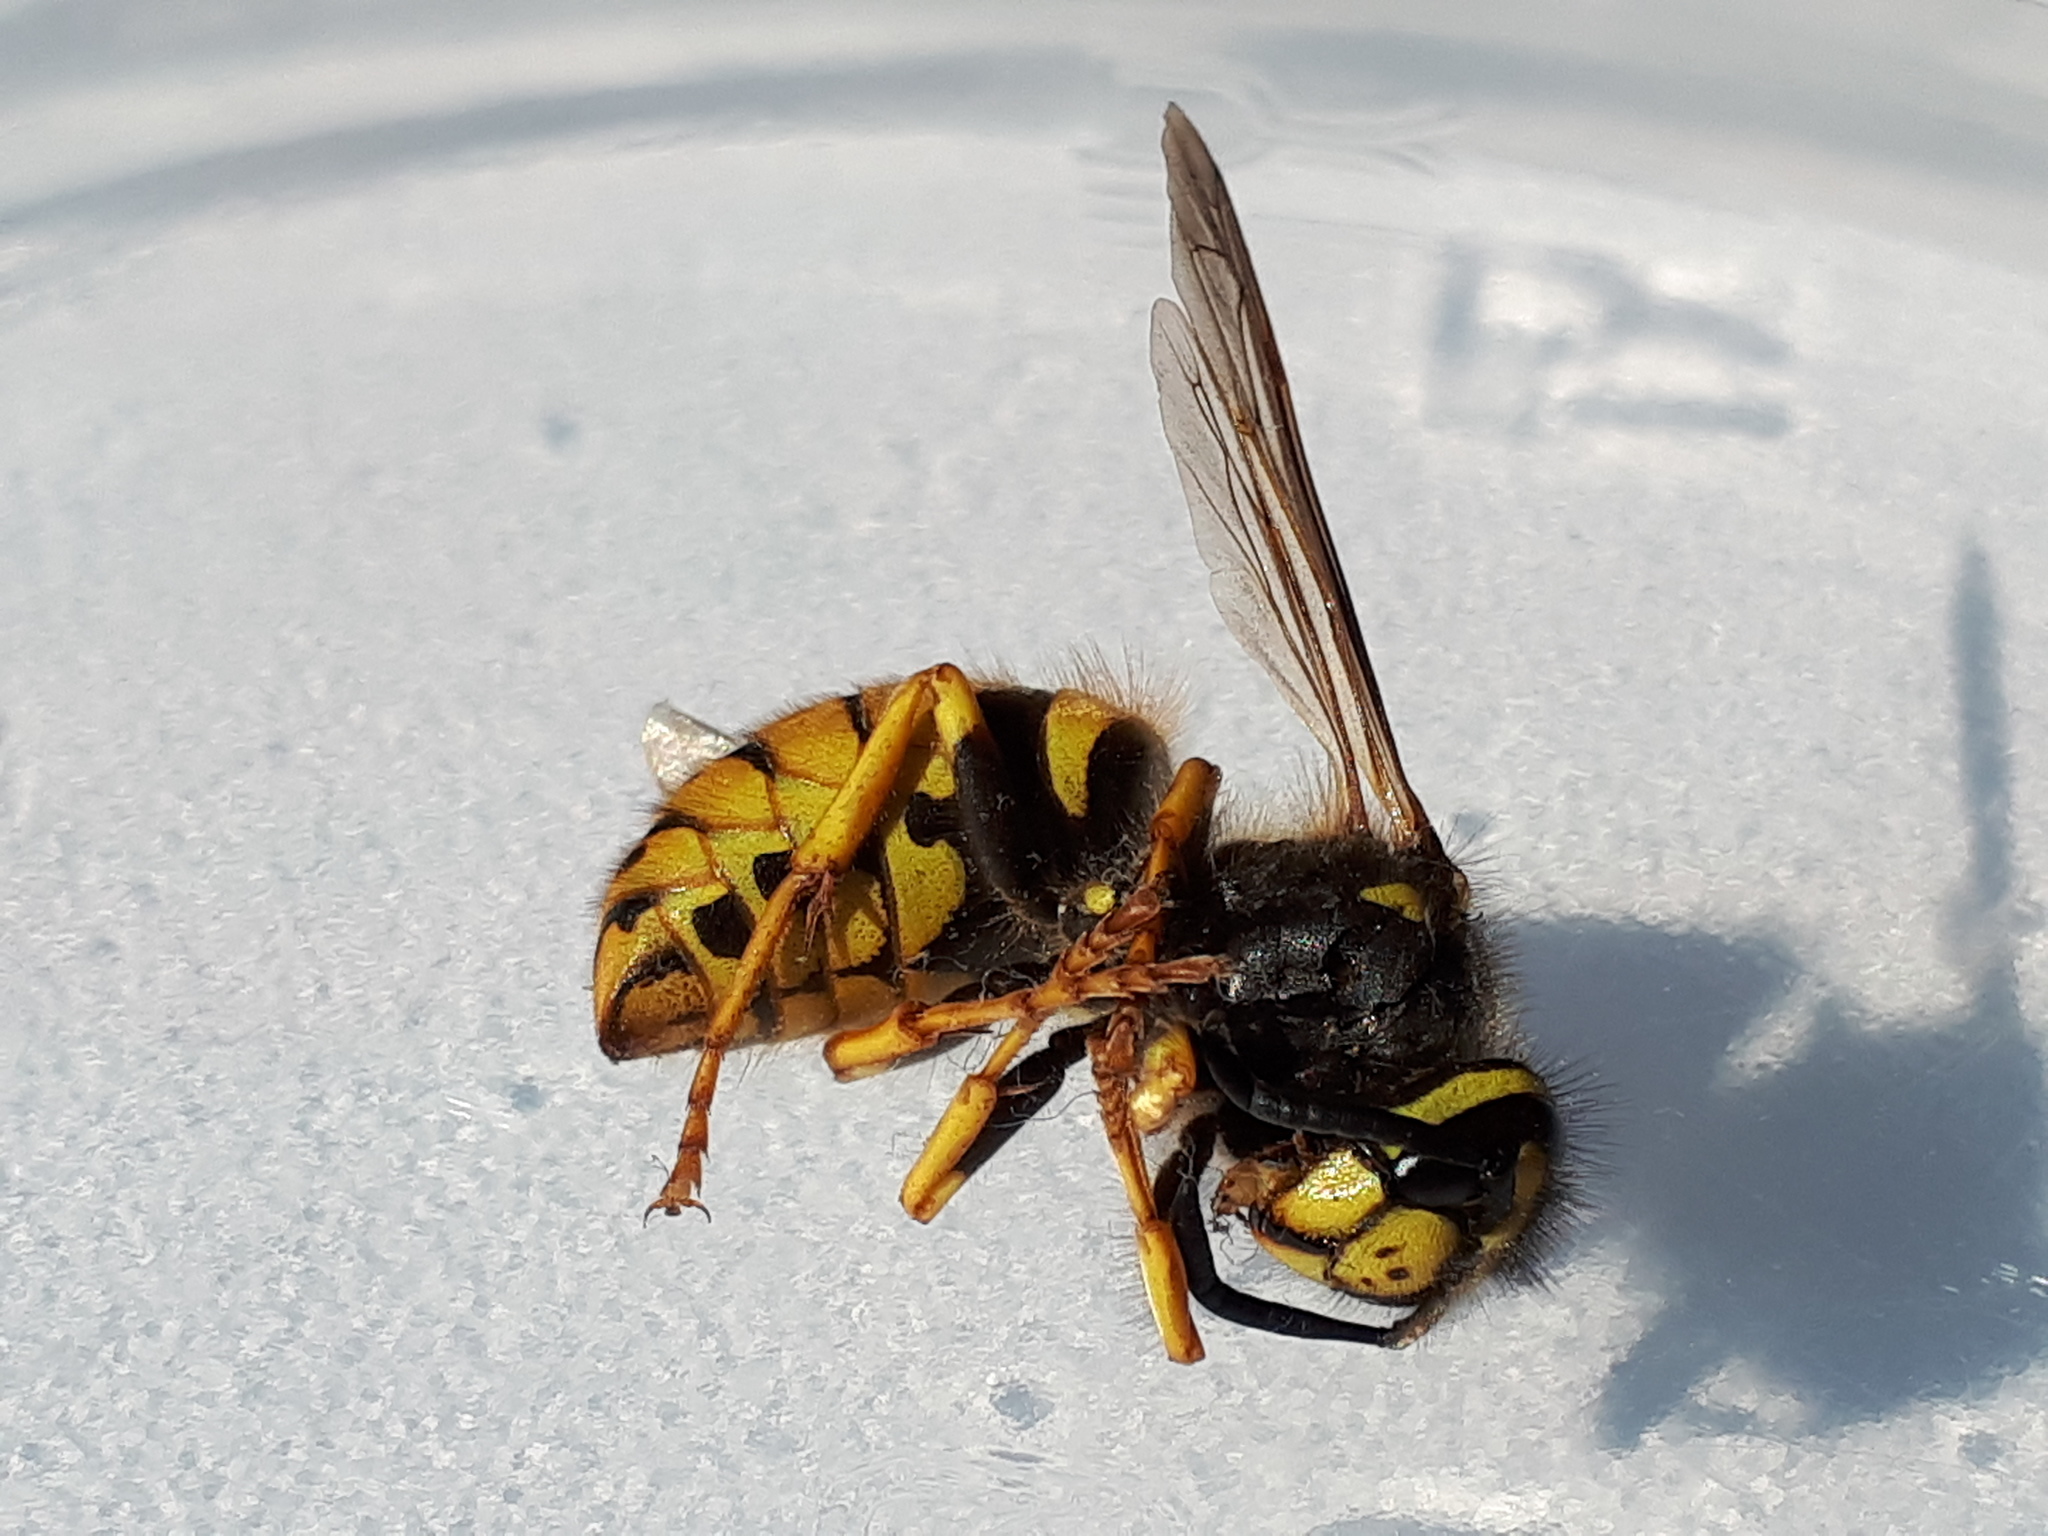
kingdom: Animalia
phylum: Arthropoda
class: Insecta
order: Hymenoptera
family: Vespidae
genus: Vespula
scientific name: Vespula germanica
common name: German wasp
